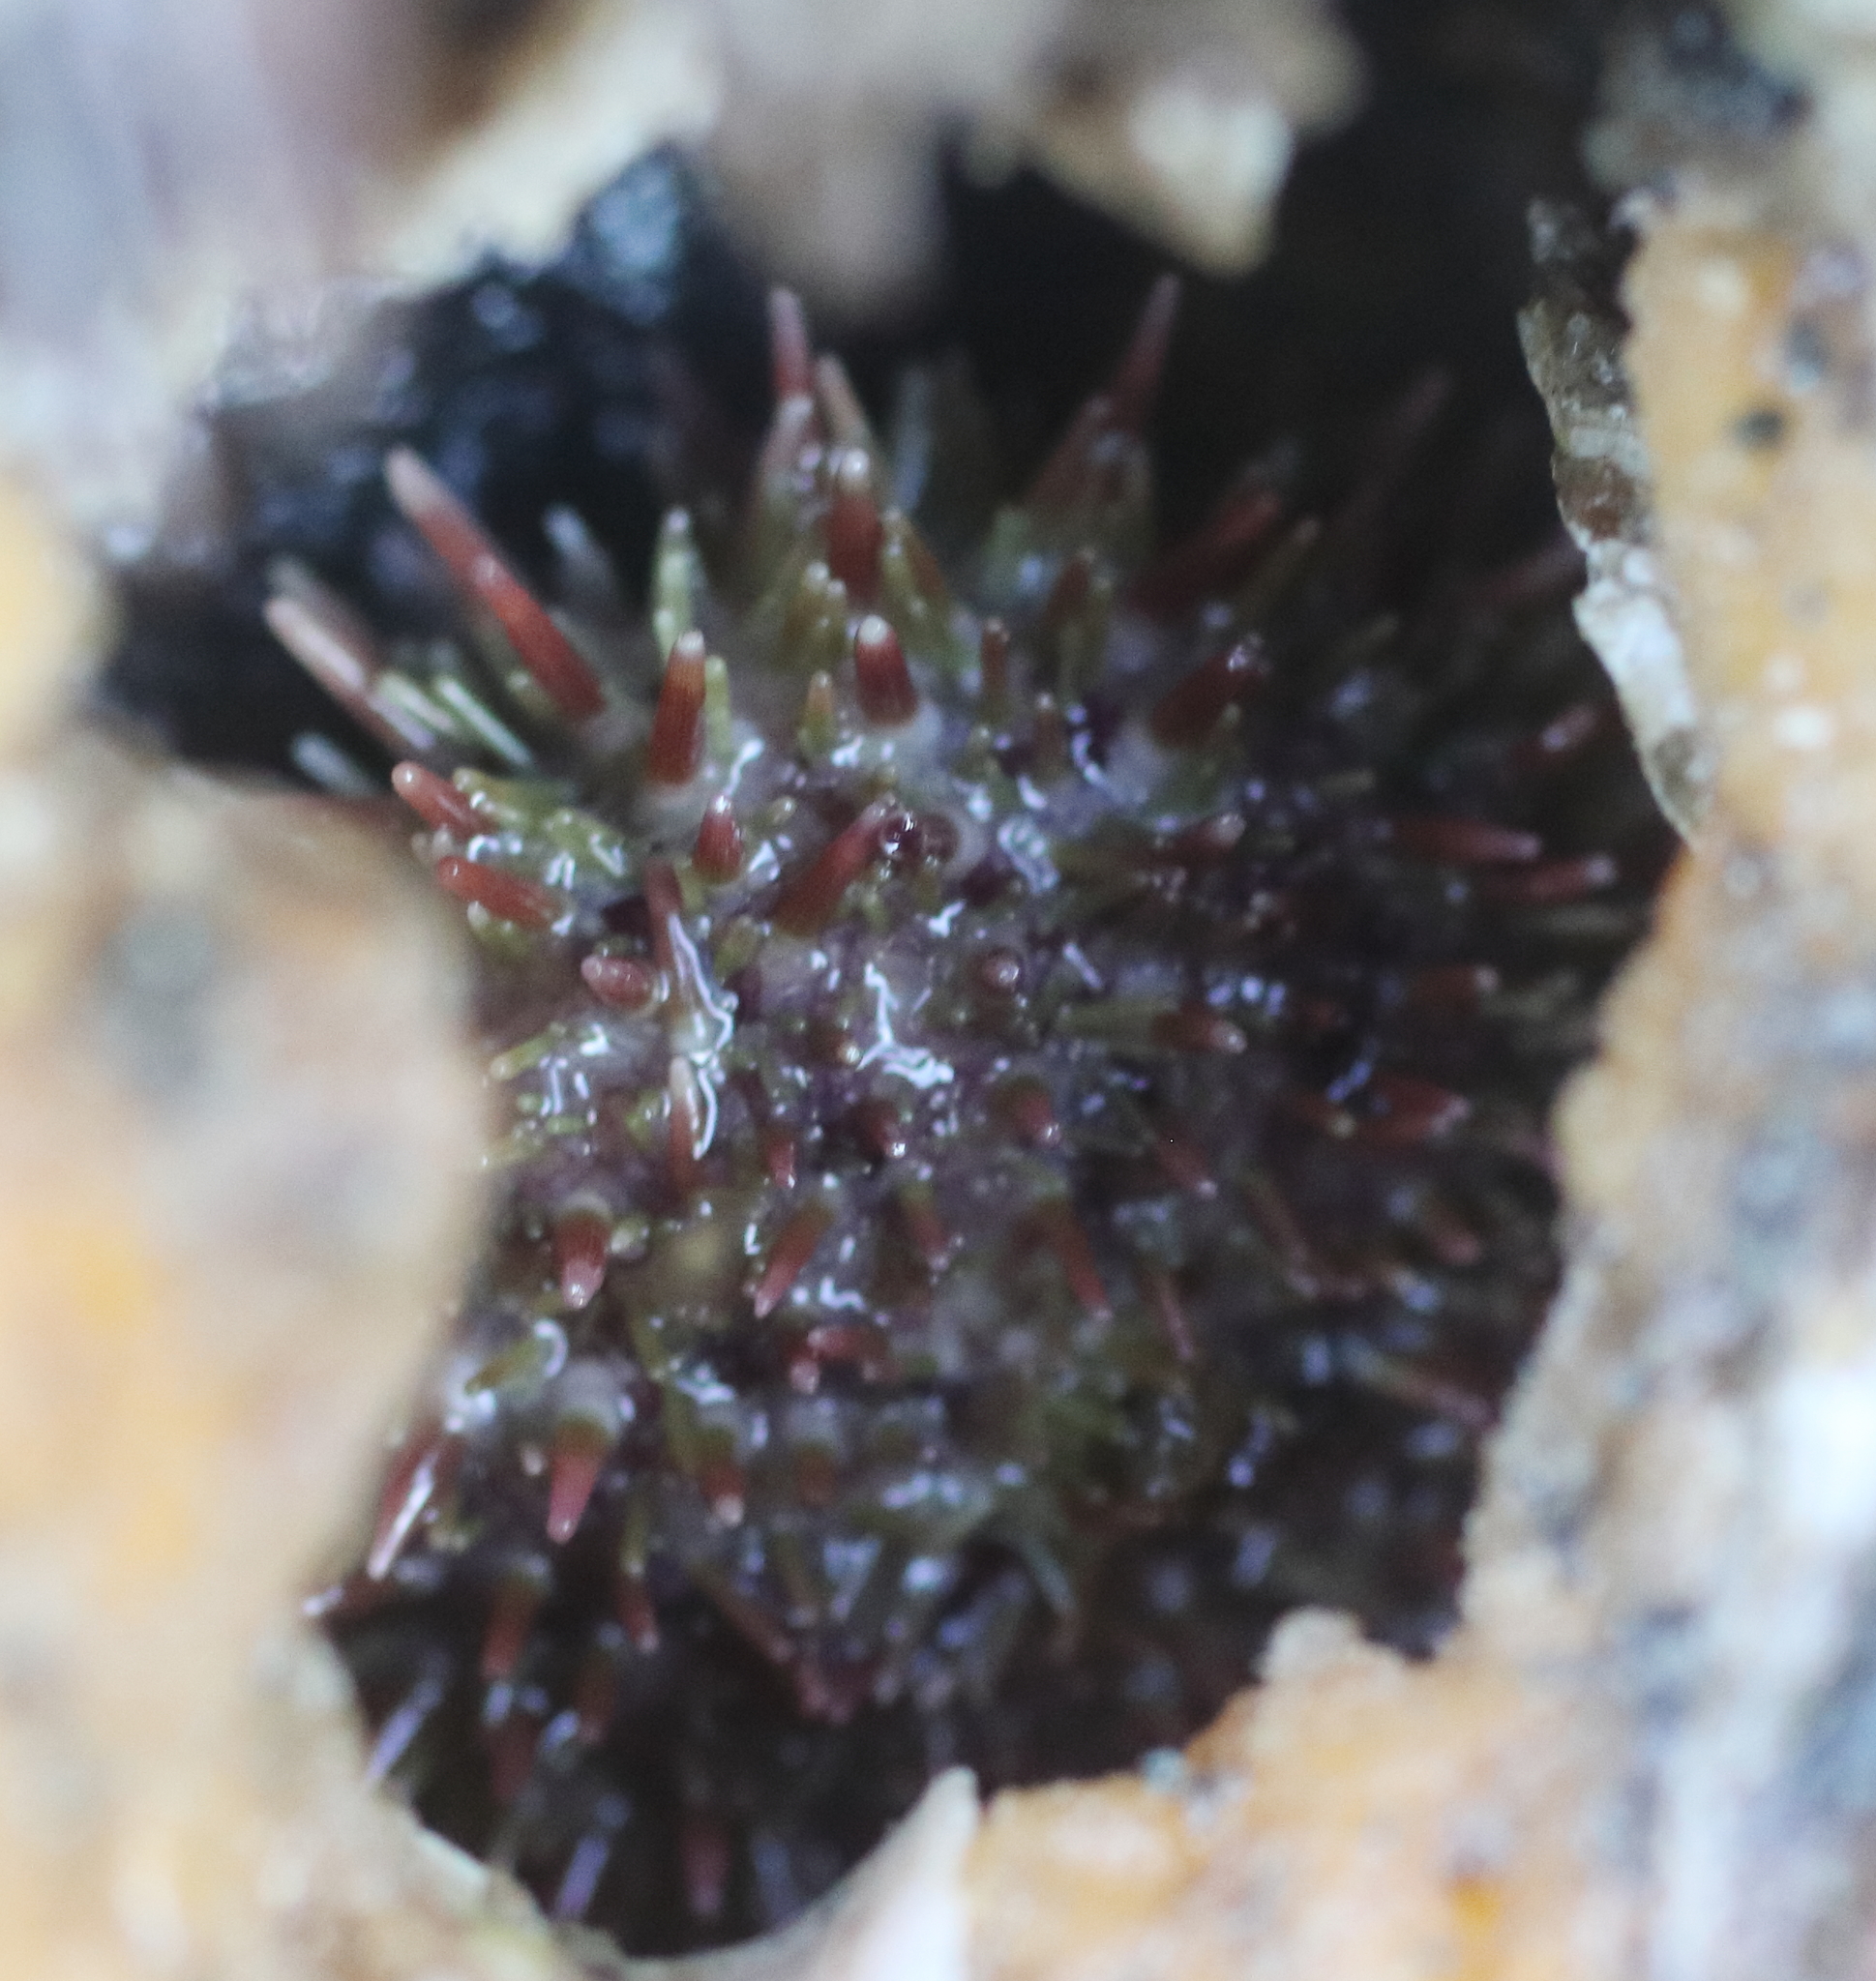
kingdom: Animalia
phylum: Echinodermata
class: Echinoidea
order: Camarodonta
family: Strongylocentrotidae
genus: Strongylocentrotus
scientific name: Strongylocentrotus droebachiensis
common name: Northern sea urchin
